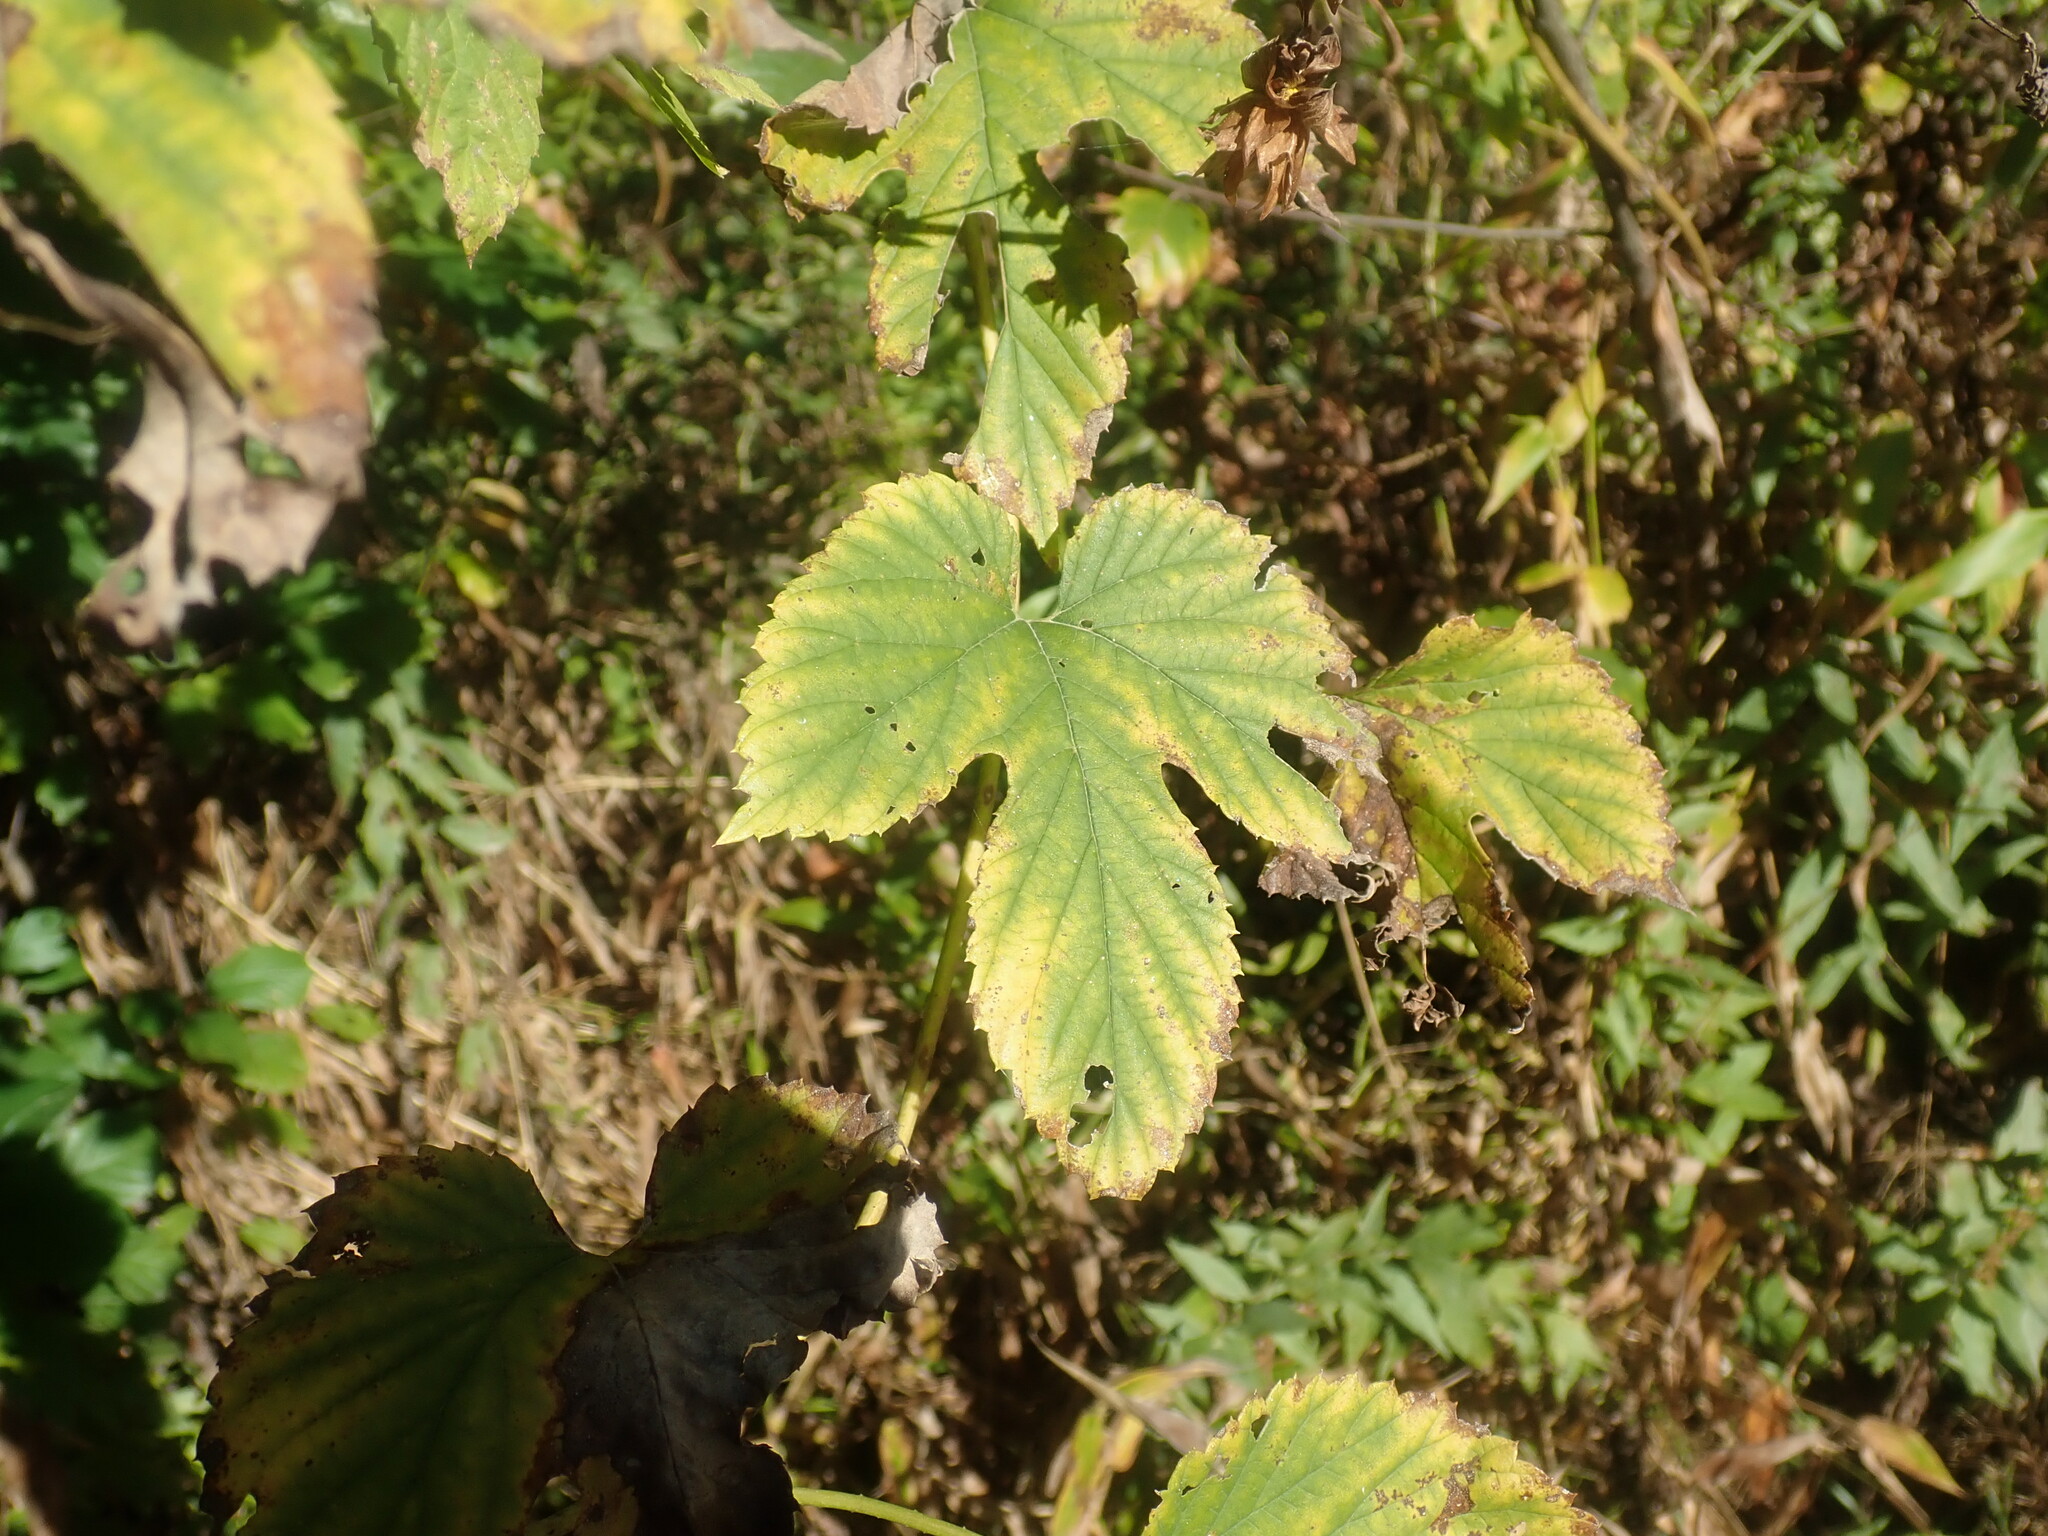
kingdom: Plantae
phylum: Tracheophyta
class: Magnoliopsida
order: Rosales
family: Cannabaceae
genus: Humulus
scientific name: Humulus lupulus
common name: Hop
